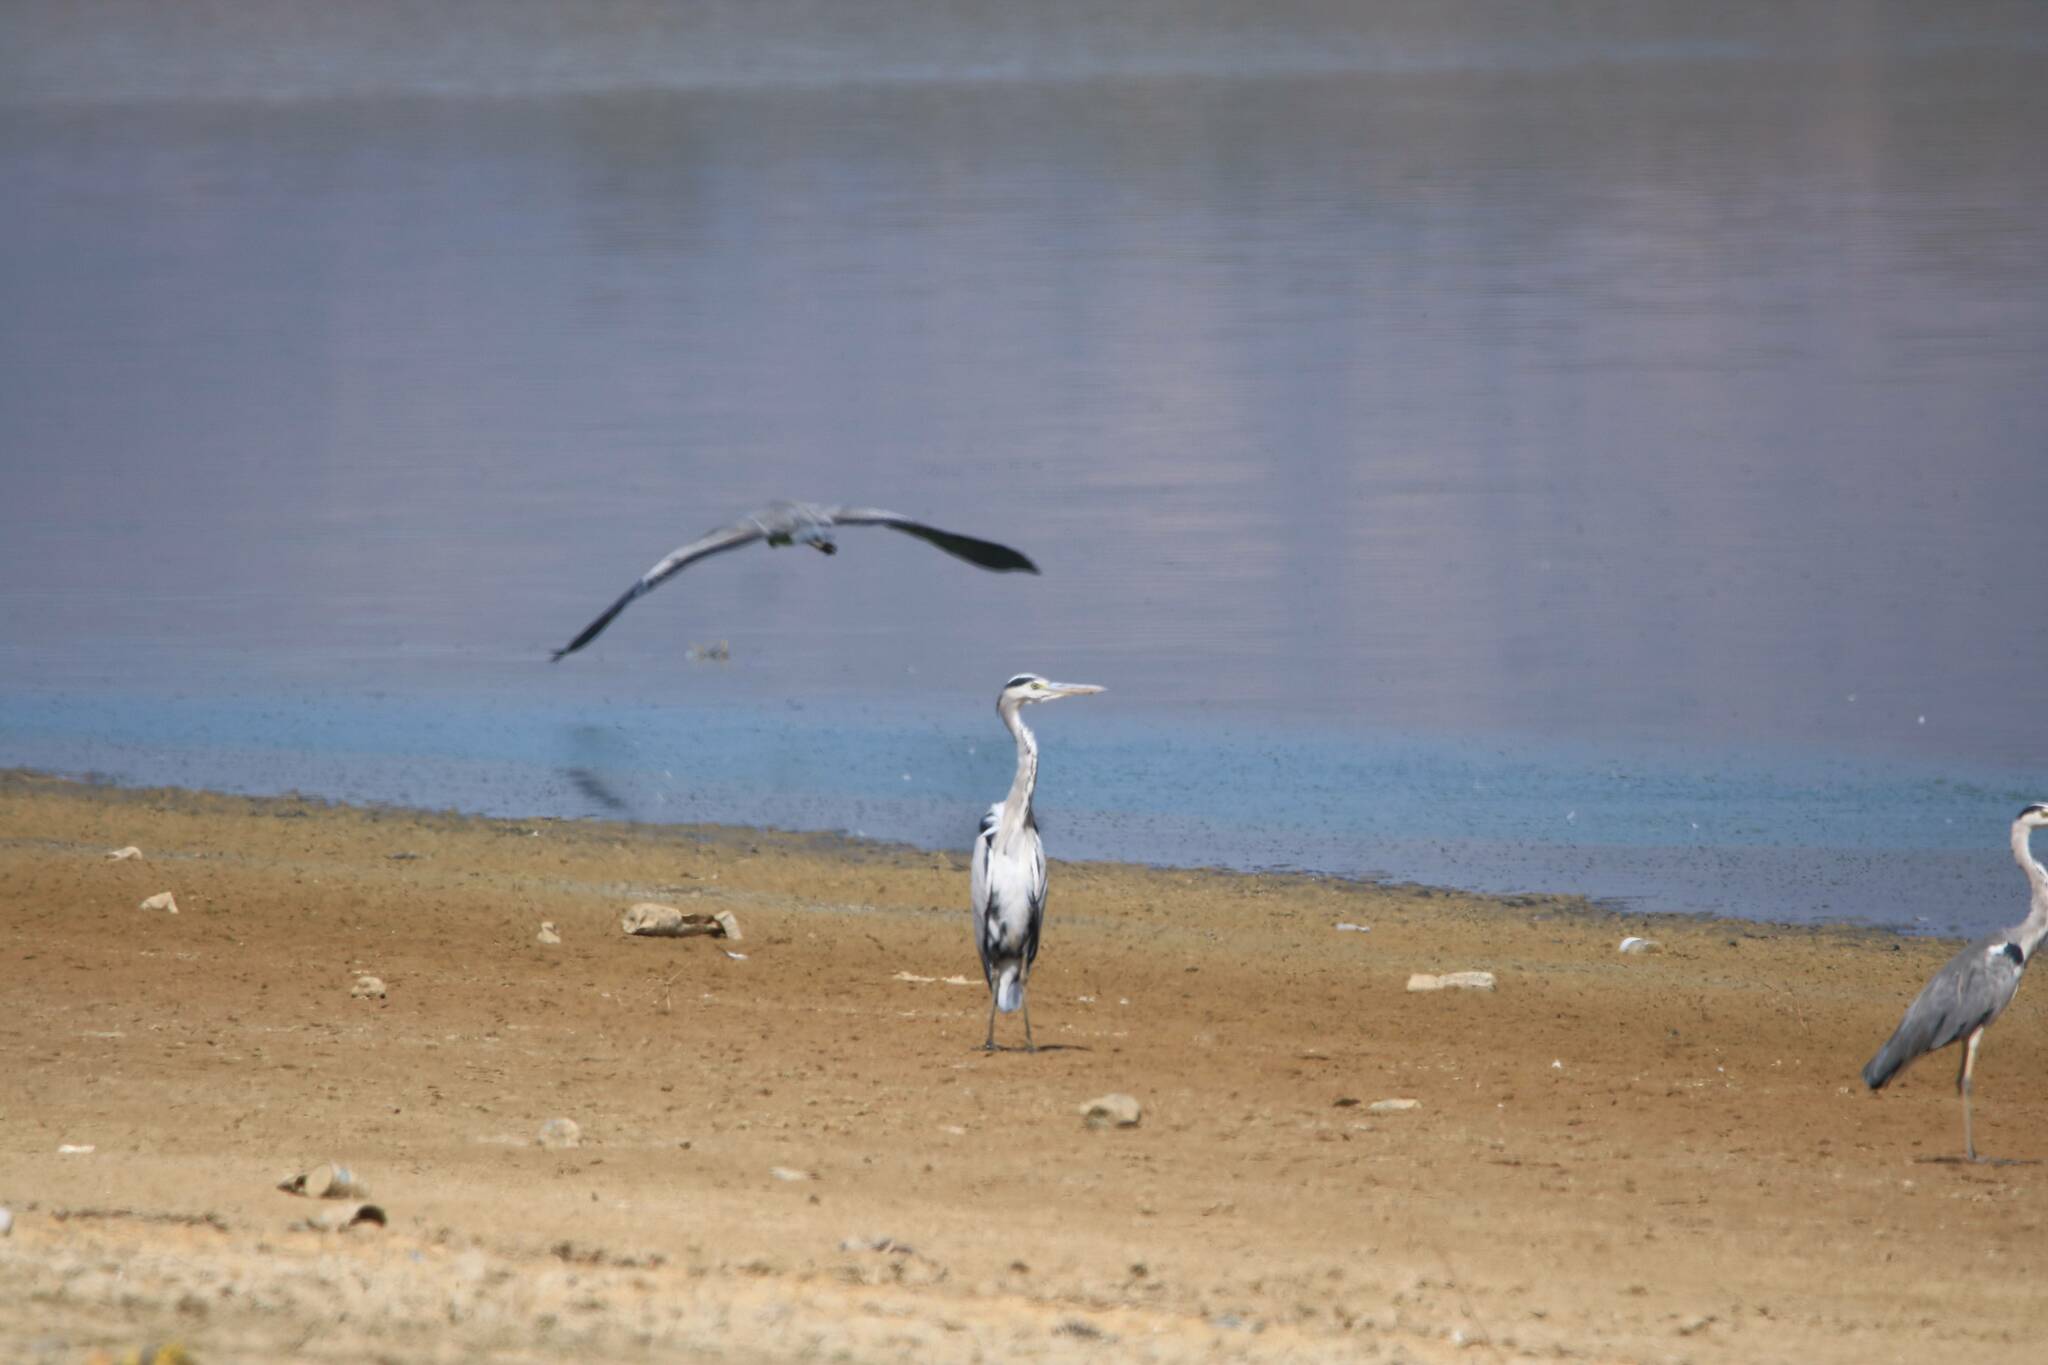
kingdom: Animalia
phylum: Chordata
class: Aves
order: Pelecaniformes
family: Ardeidae
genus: Ardea
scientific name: Ardea cinerea
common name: Grey heron
